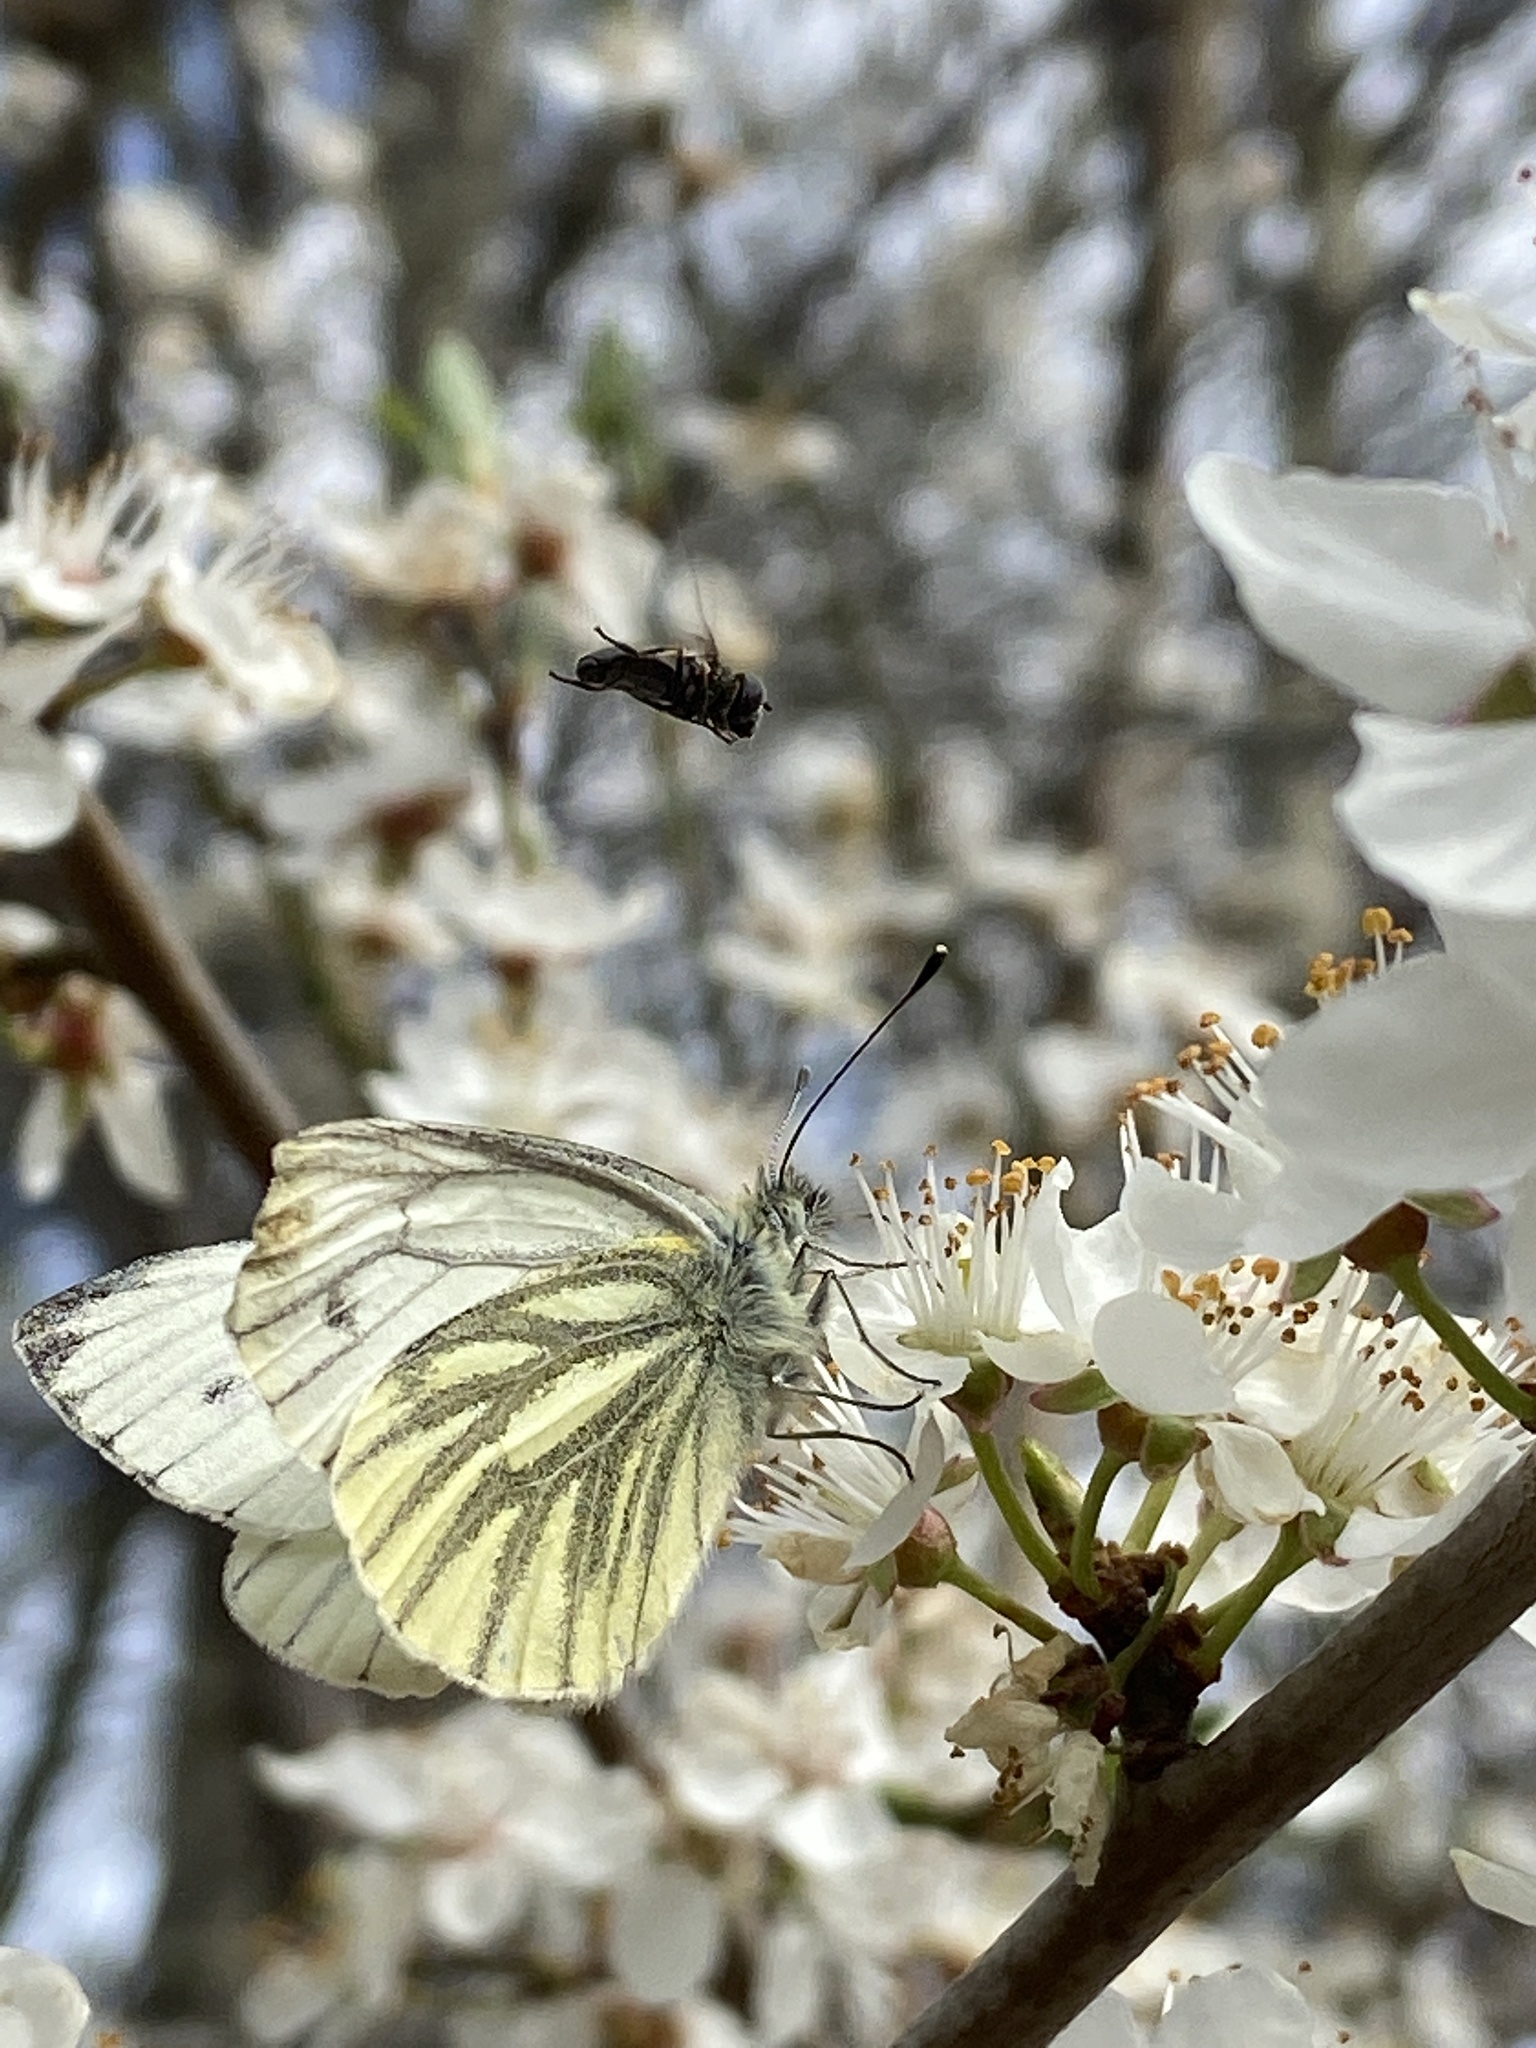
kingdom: Animalia
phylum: Arthropoda
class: Insecta
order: Lepidoptera
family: Pieridae
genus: Pieris
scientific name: Pieris napi
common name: Green-veined white
